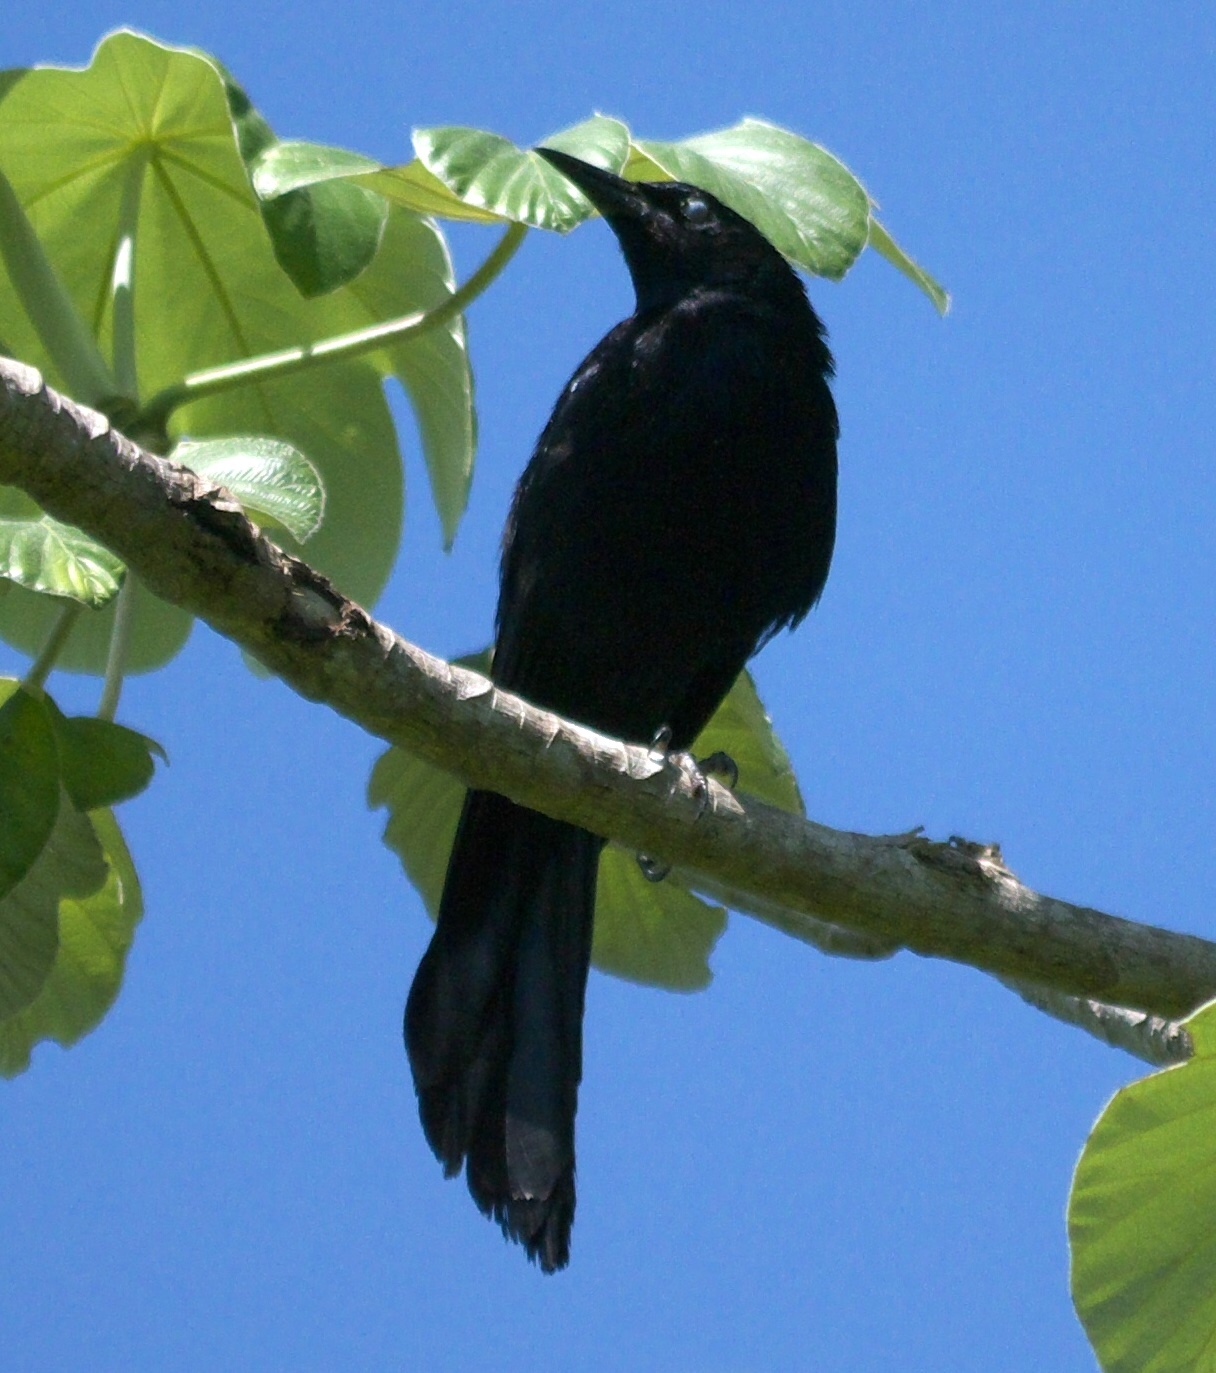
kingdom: Animalia
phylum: Chordata
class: Aves
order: Passeriformes
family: Icteridae
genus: Quiscalus
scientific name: Quiscalus niger
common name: Greater antillean grackle
